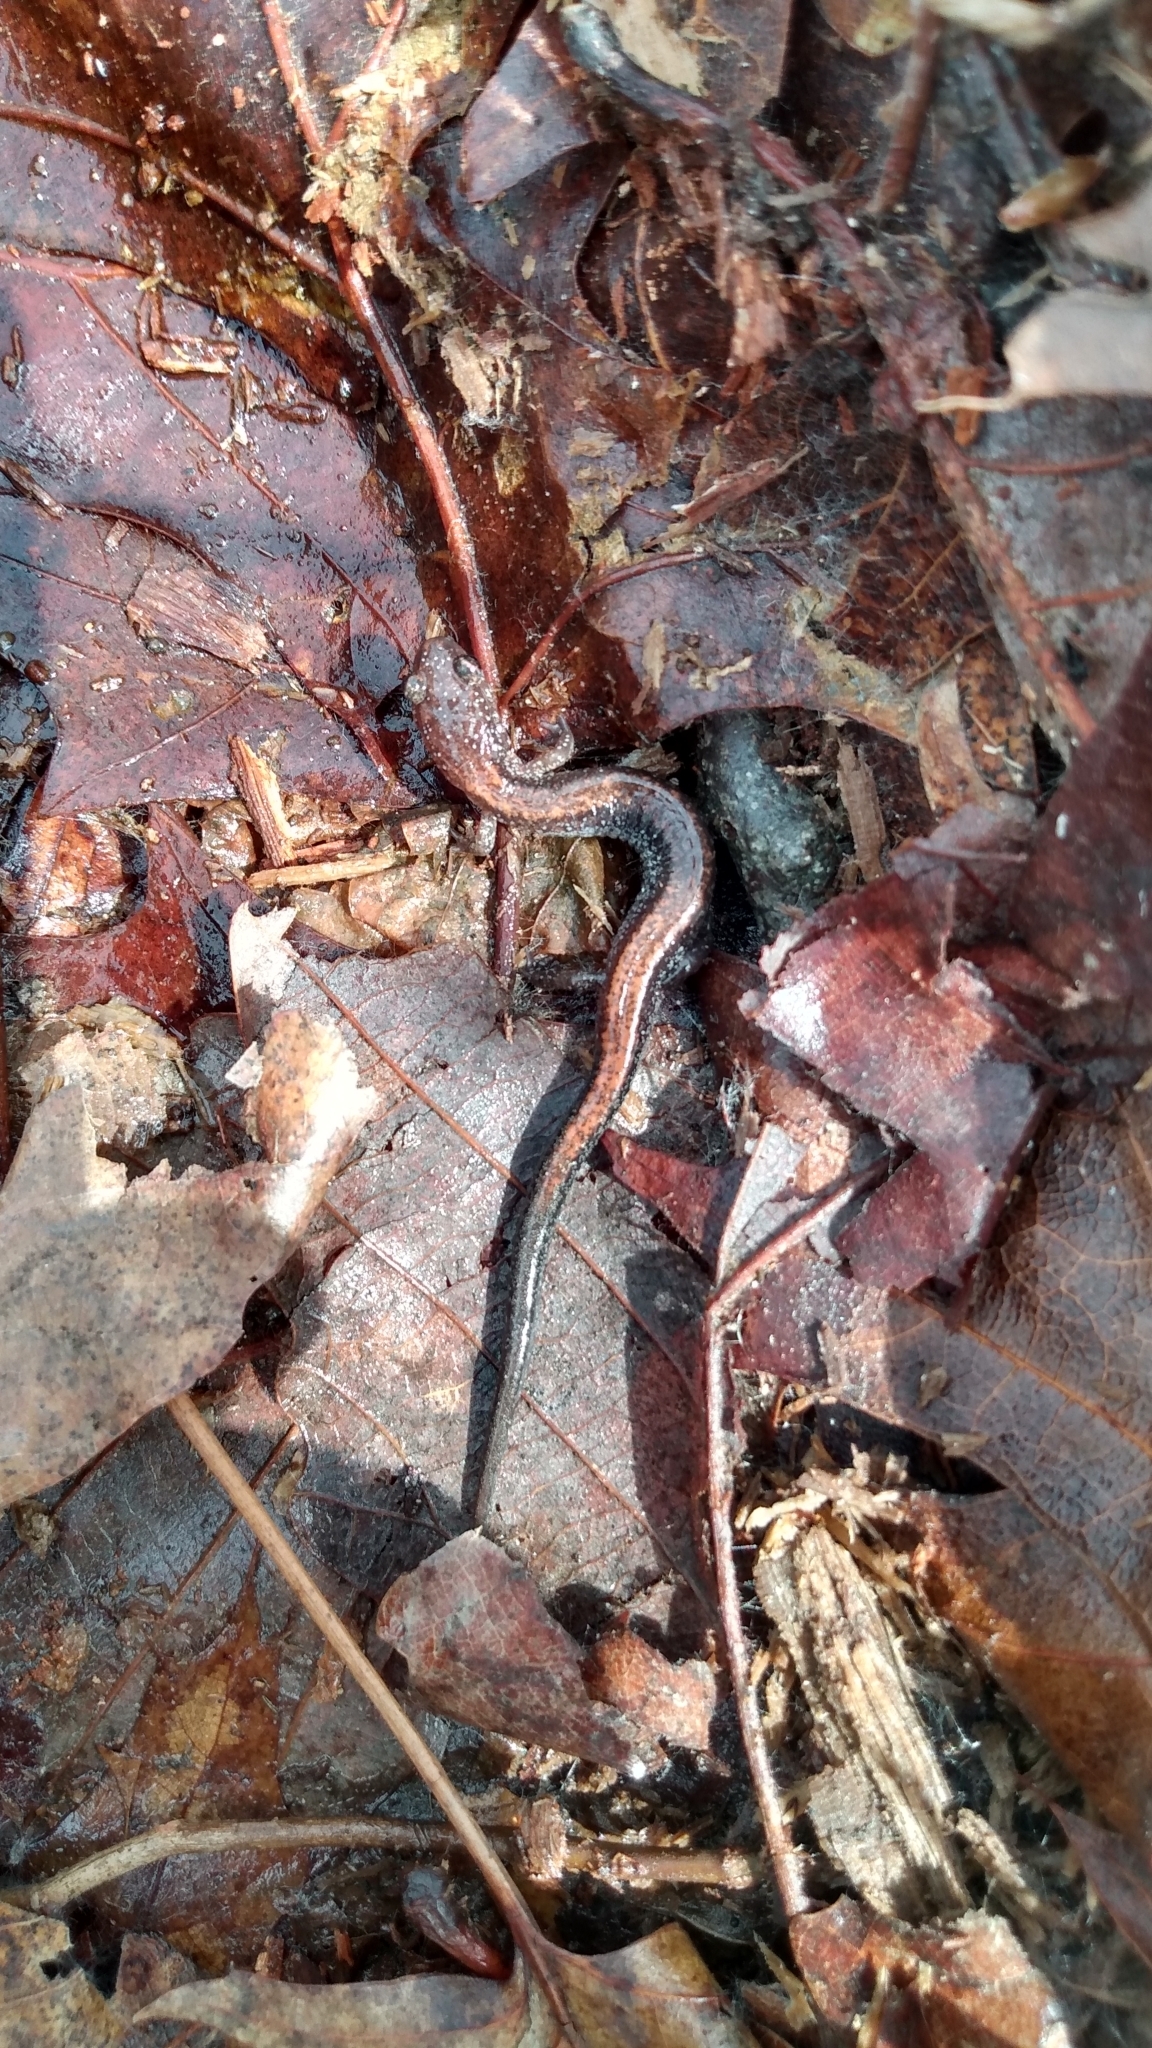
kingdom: Animalia
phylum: Chordata
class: Amphibia
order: Caudata
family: Plethodontidae
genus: Plethodon
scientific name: Plethodon cinereus
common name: Redback salamander
